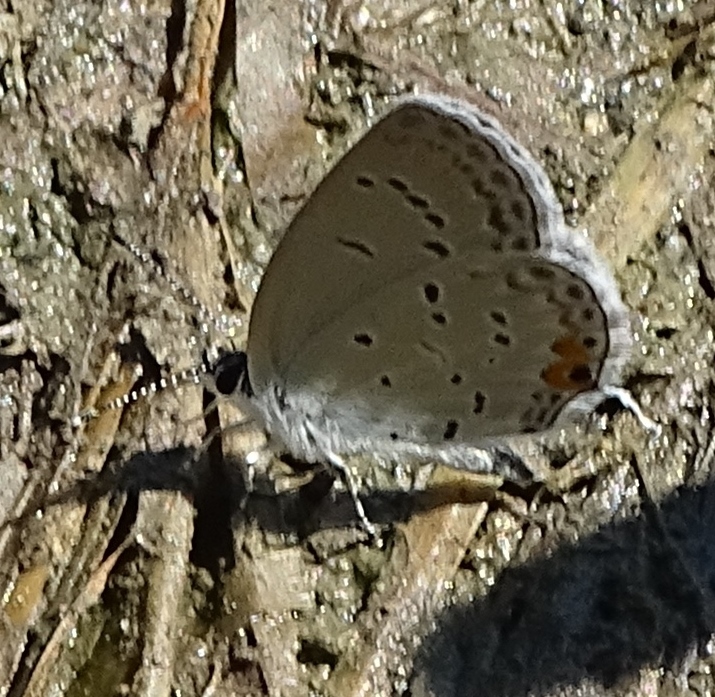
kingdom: Animalia
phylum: Arthropoda
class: Insecta
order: Lepidoptera
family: Lycaenidae
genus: Elkalyce
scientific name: Elkalyce comyntas
